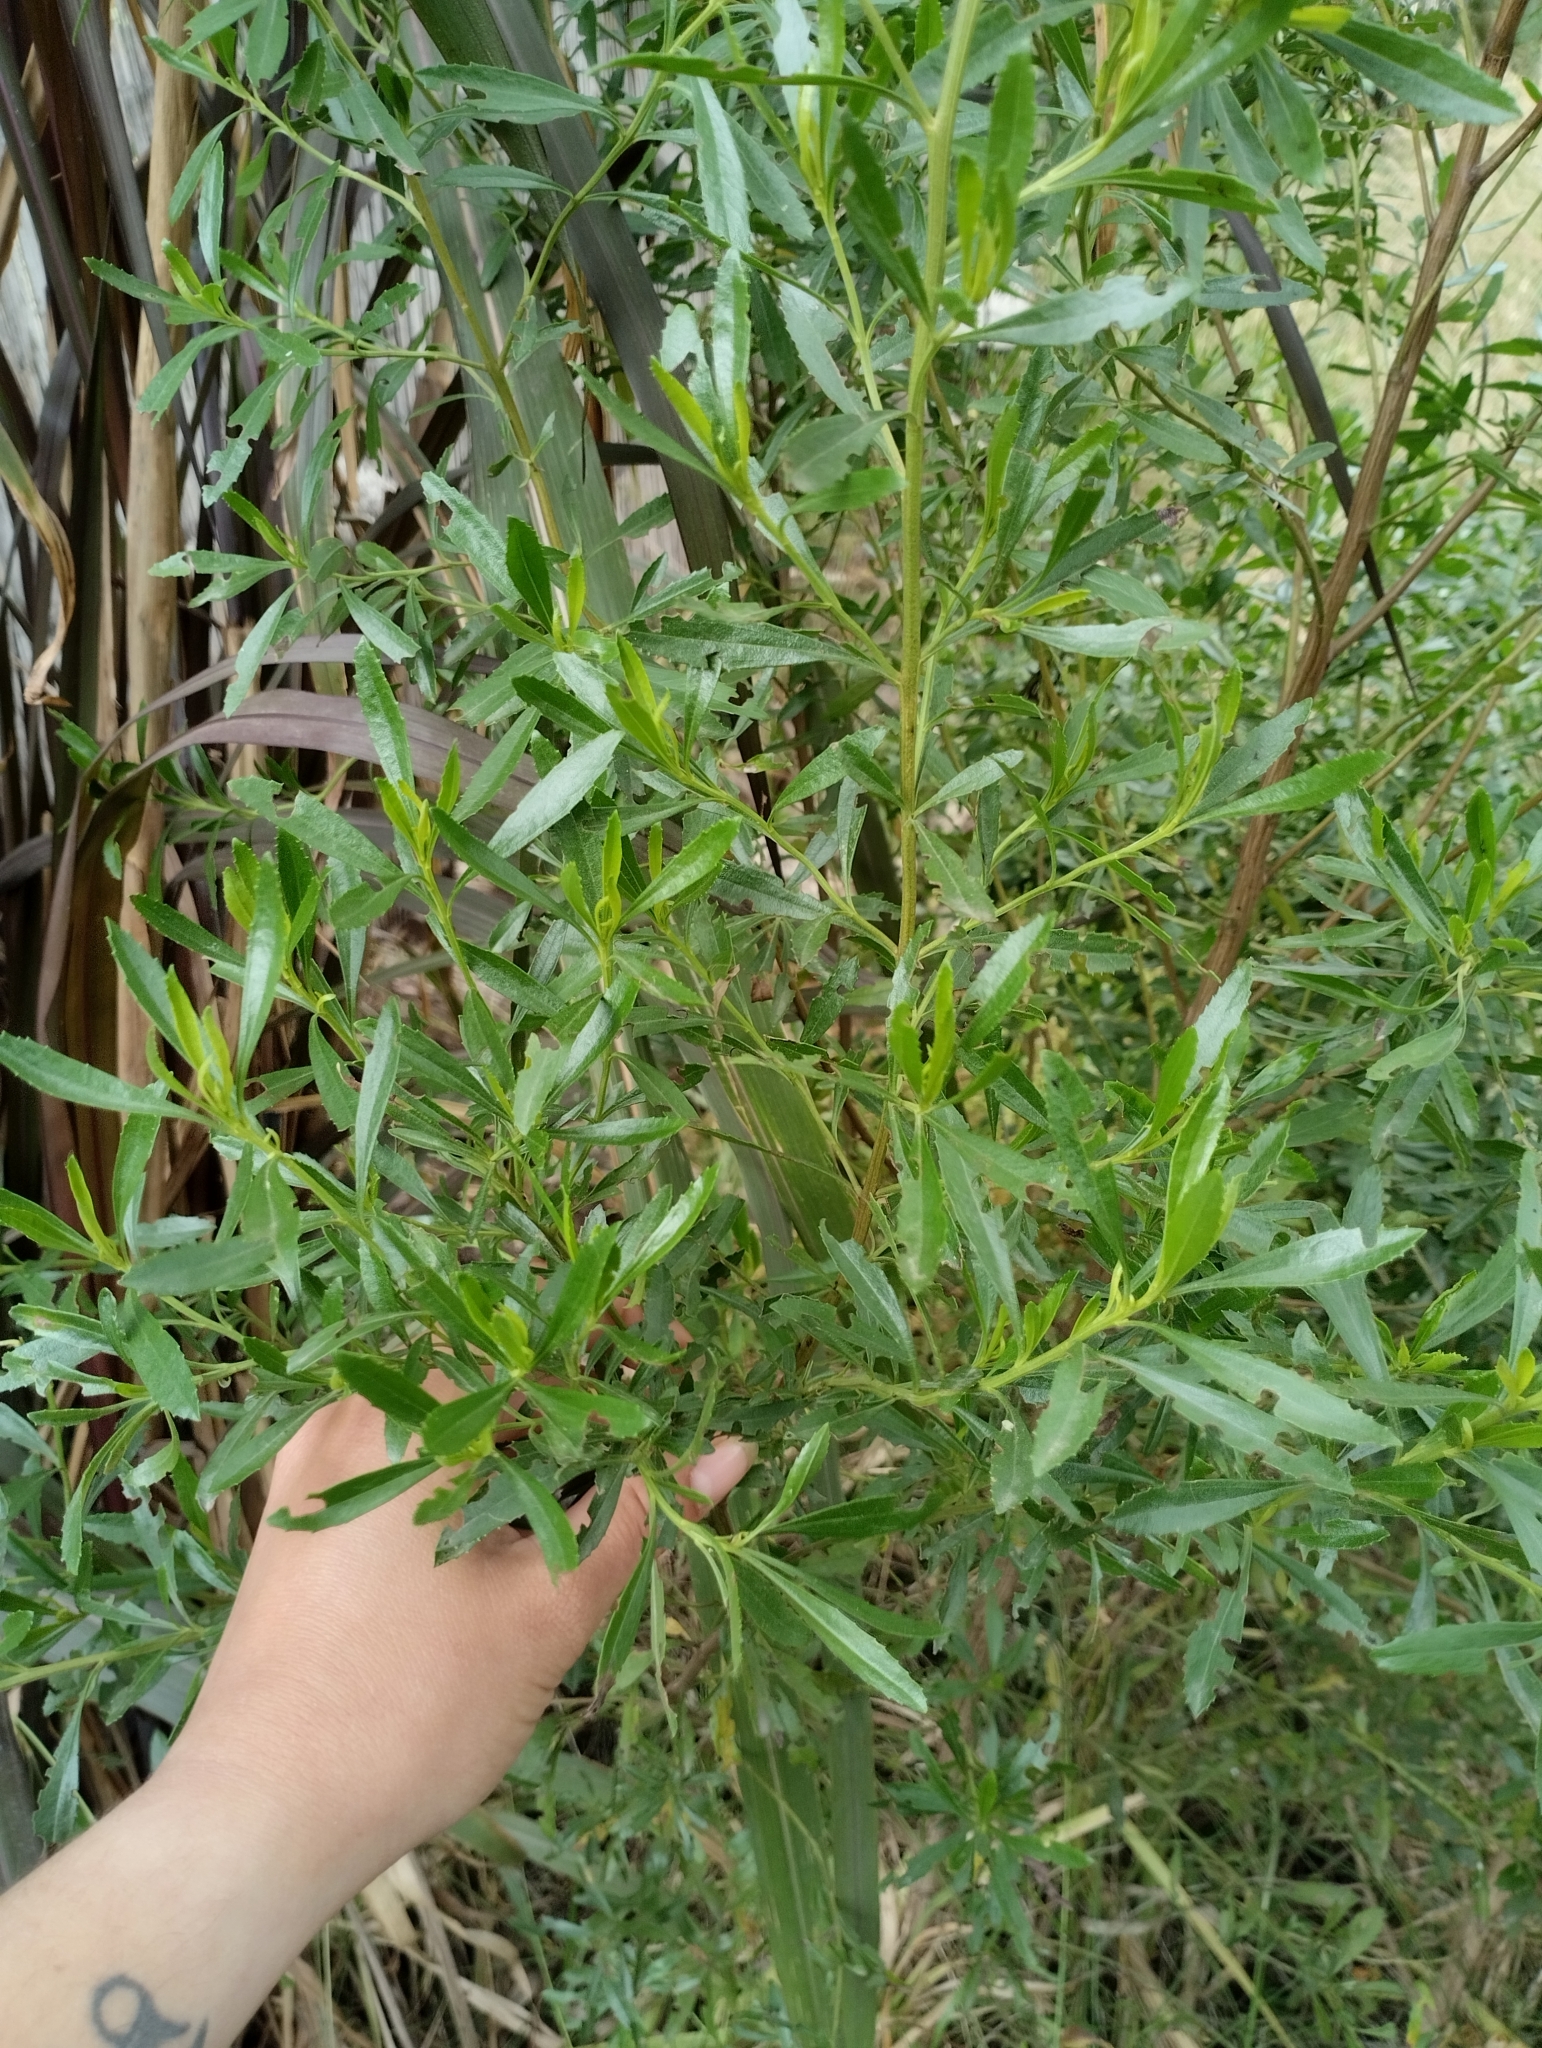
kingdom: Plantae
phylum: Tracheophyta
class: Magnoliopsida
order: Asterales
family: Asteraceae
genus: Baccharis
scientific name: Baccharis microdonta
